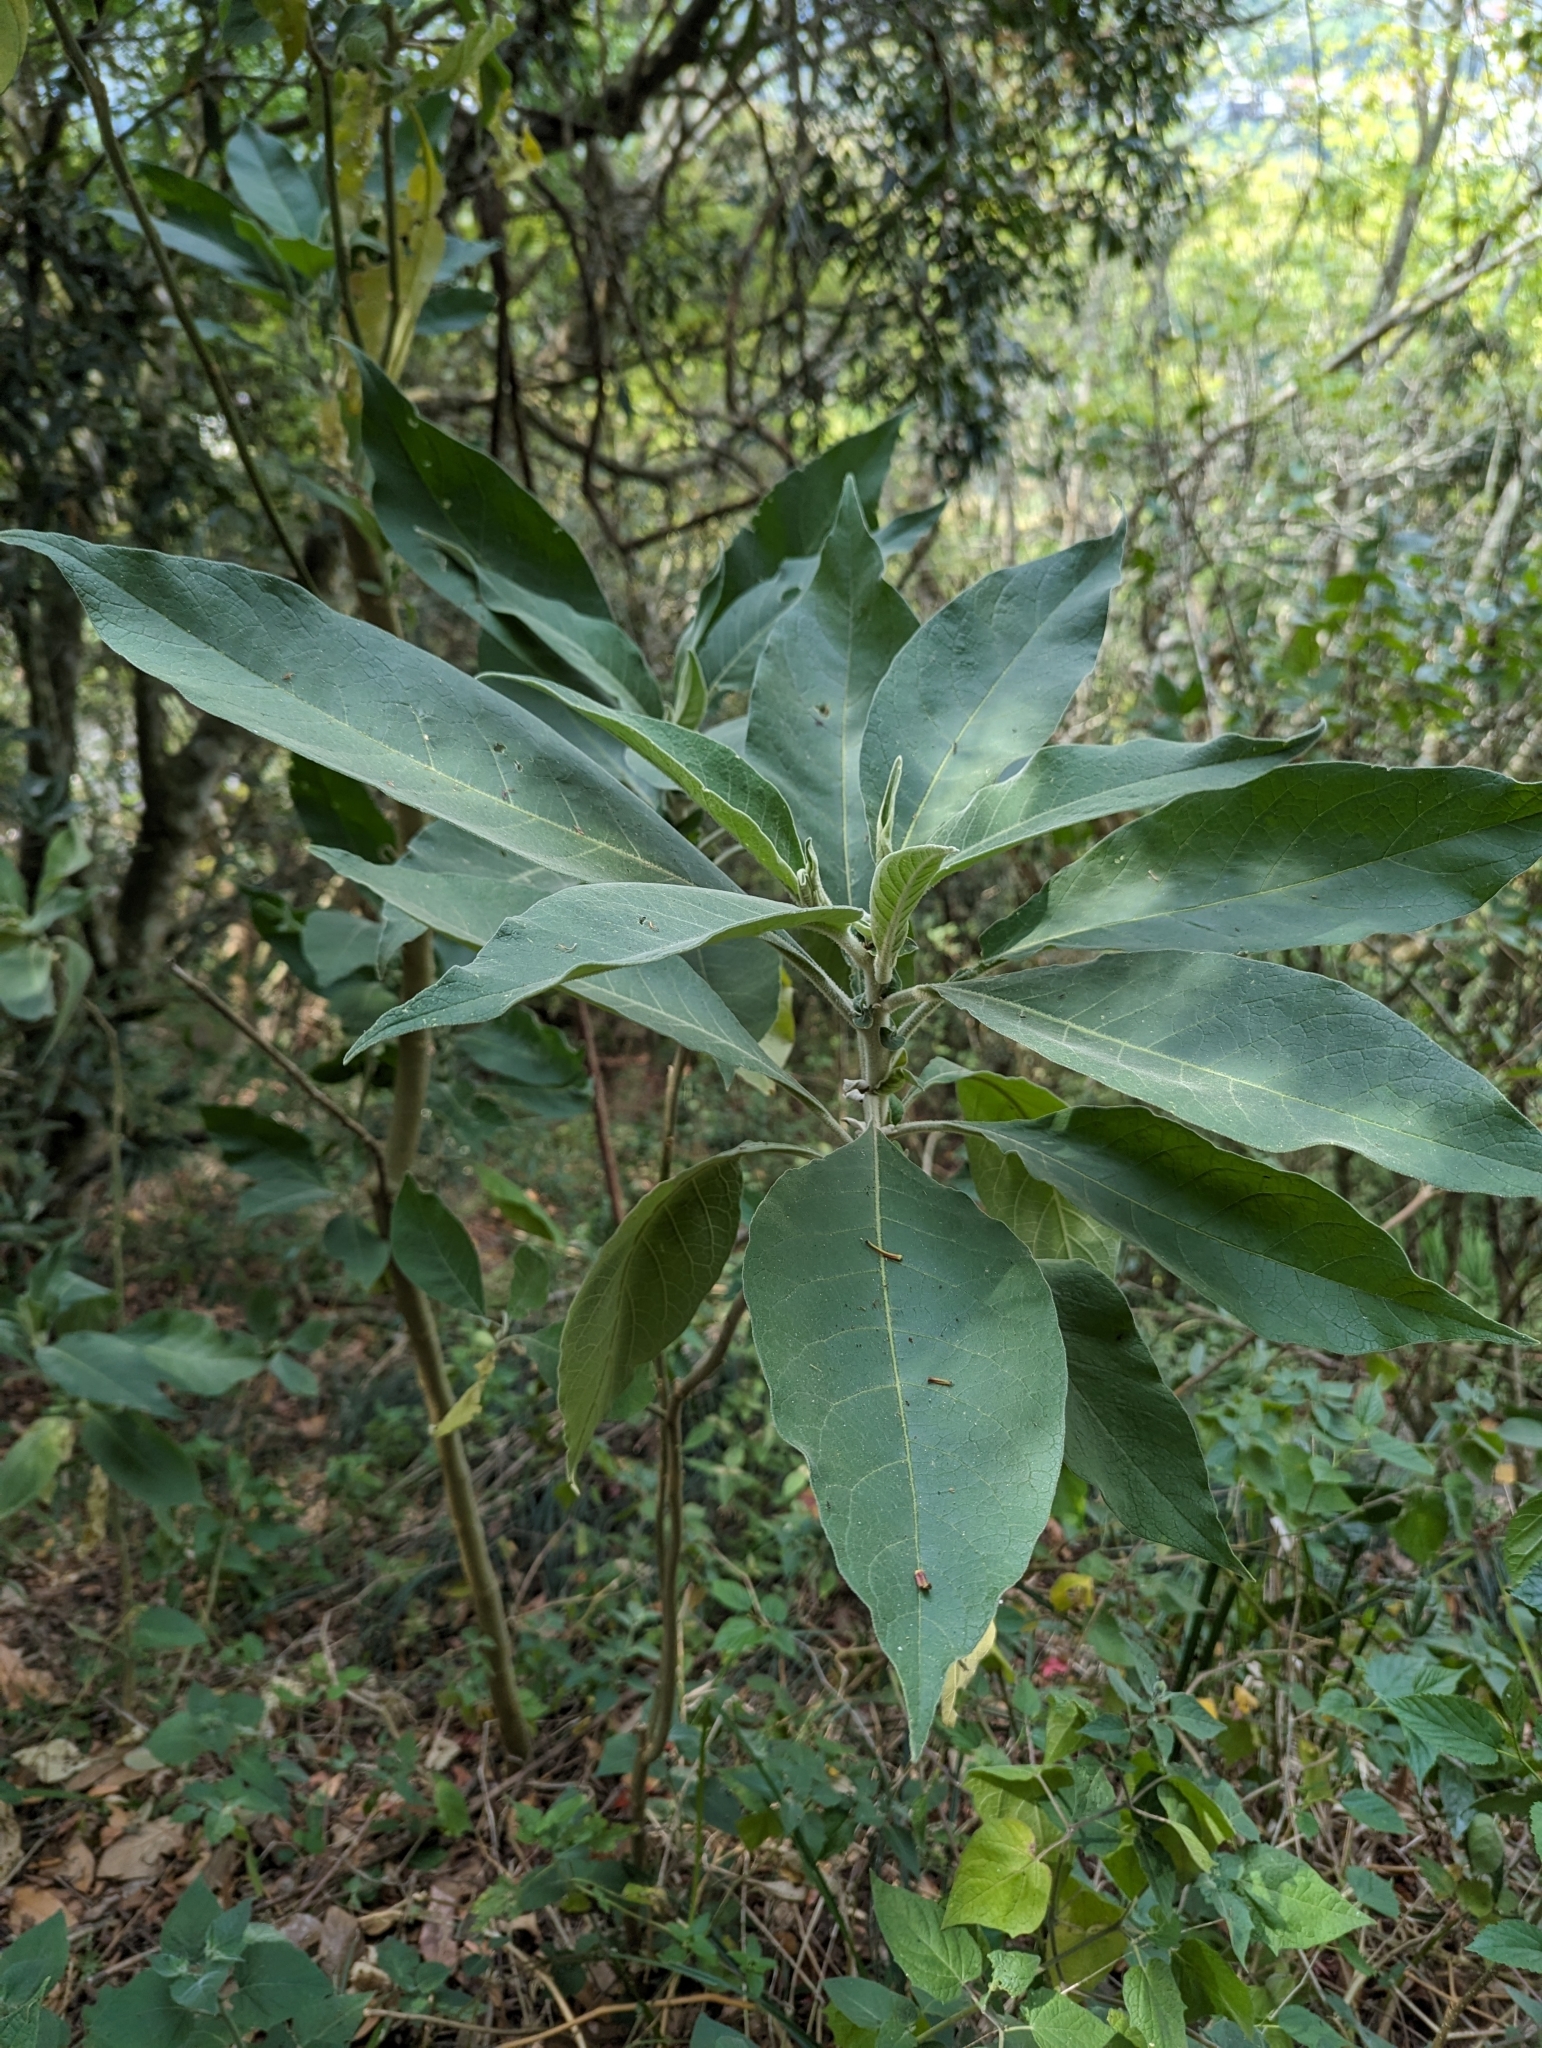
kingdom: Plantae
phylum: Tracheophyta
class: Magnoliopsida
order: Solanales
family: Solanaceae
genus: Solanum
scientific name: Solanum mauritianum
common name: Earleaf nightshade
